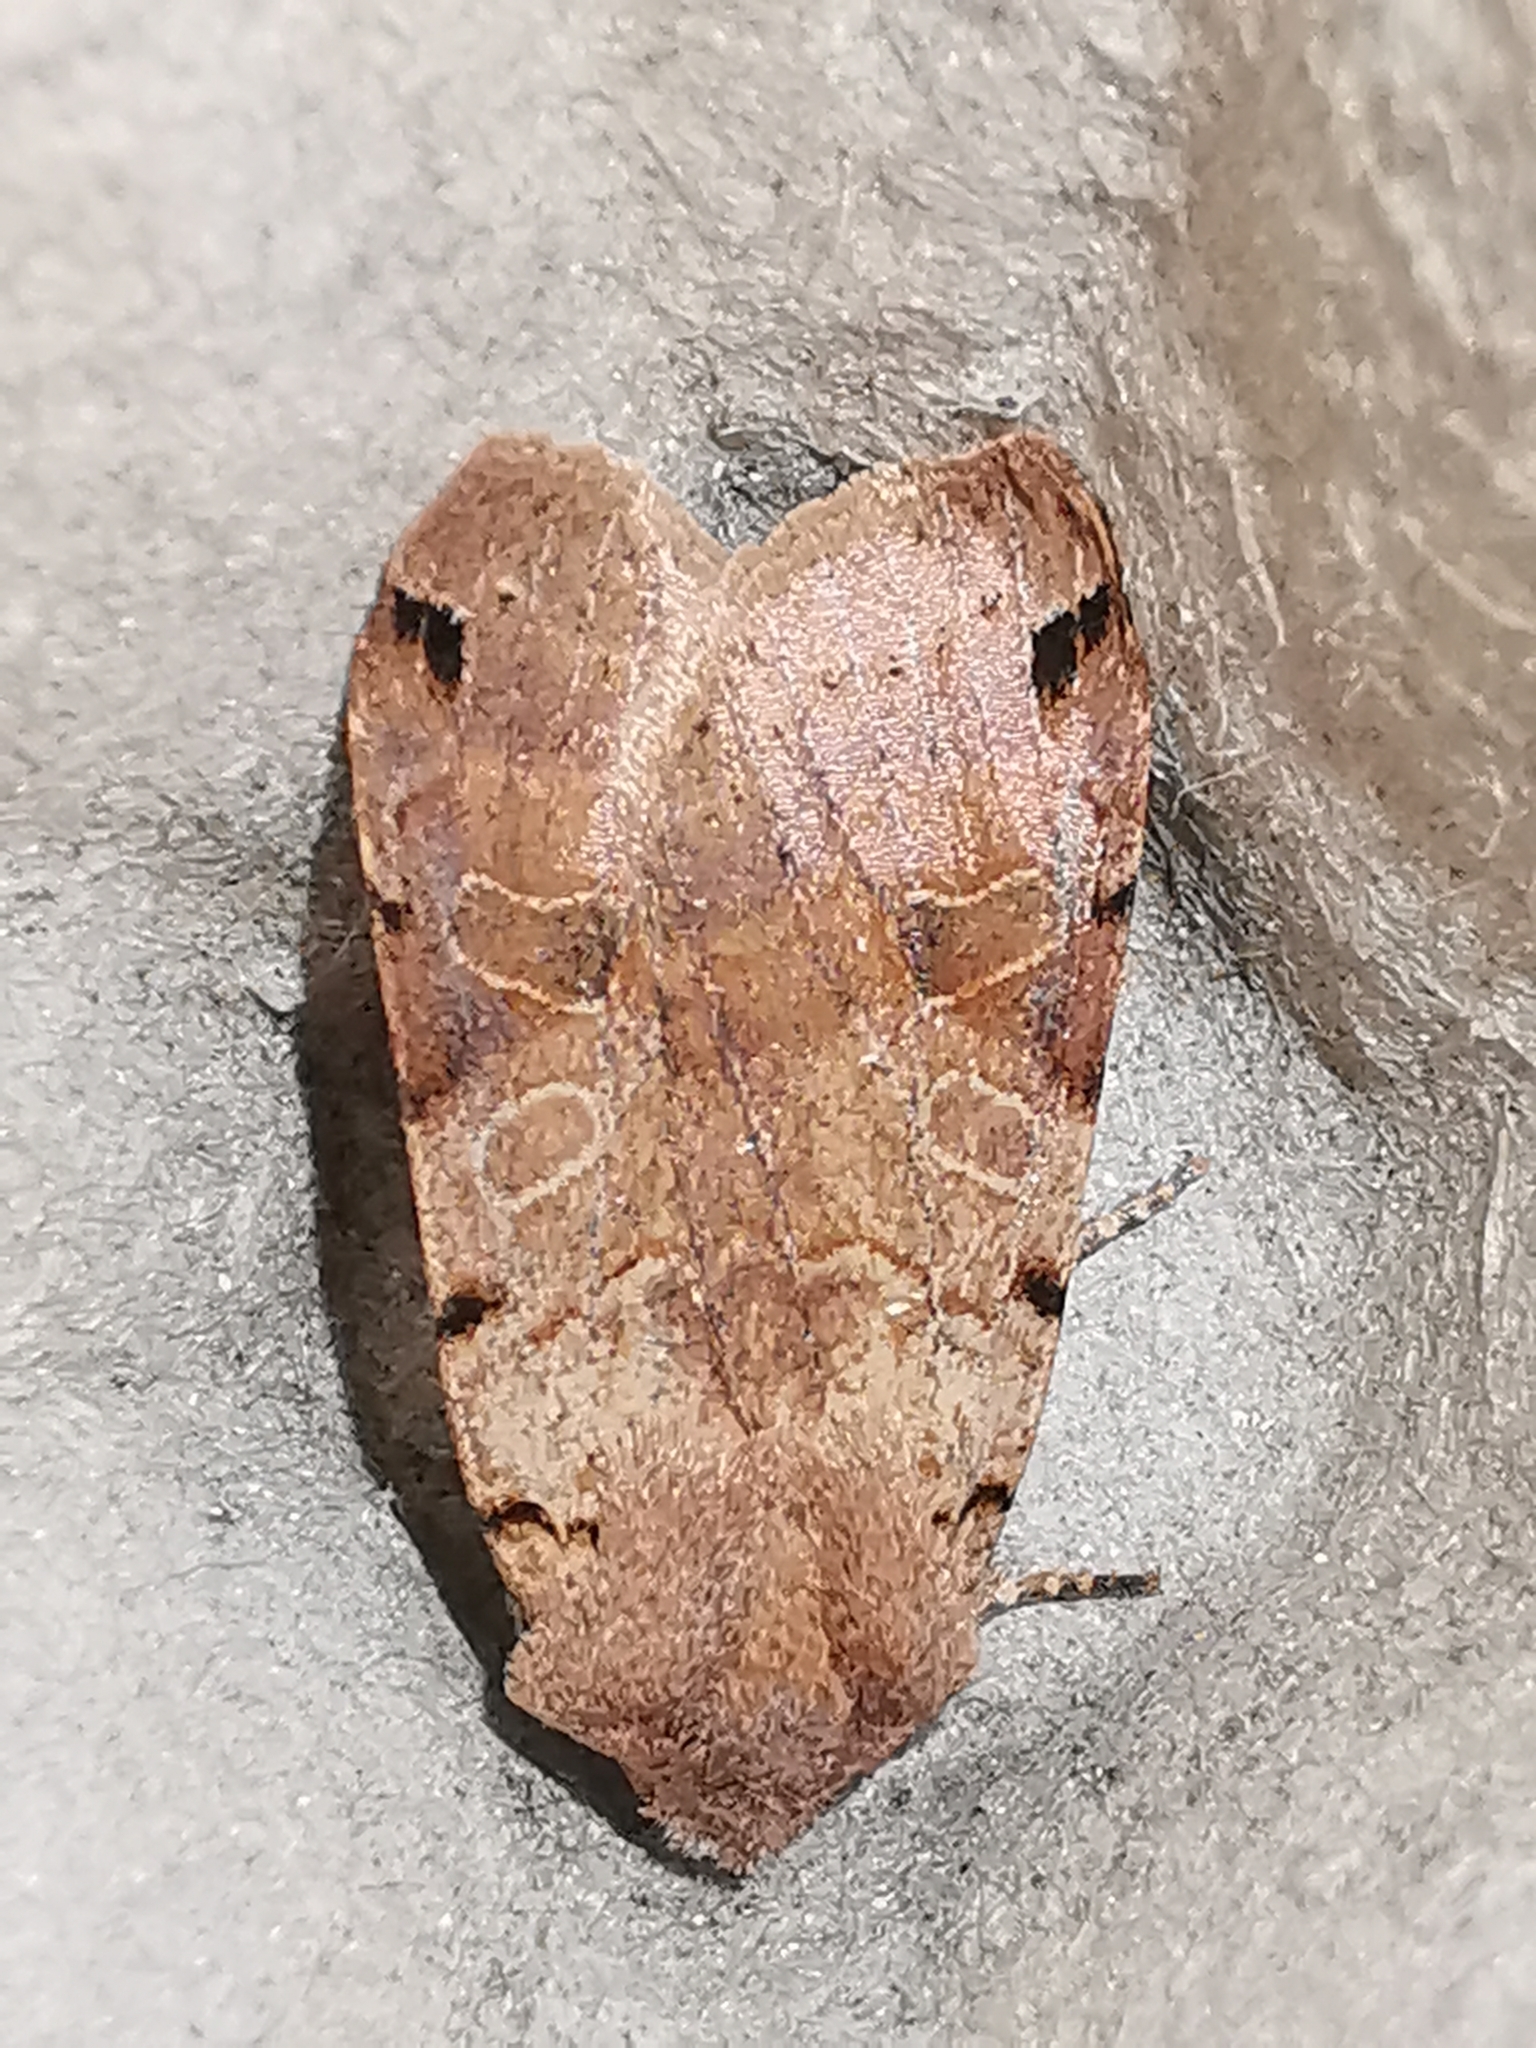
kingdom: Animalia
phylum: Arthropoda
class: Insecta
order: Lepidoptera
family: Noctuidae
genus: Agrochola
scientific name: Agrochola litura
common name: Brown-spot pinion
